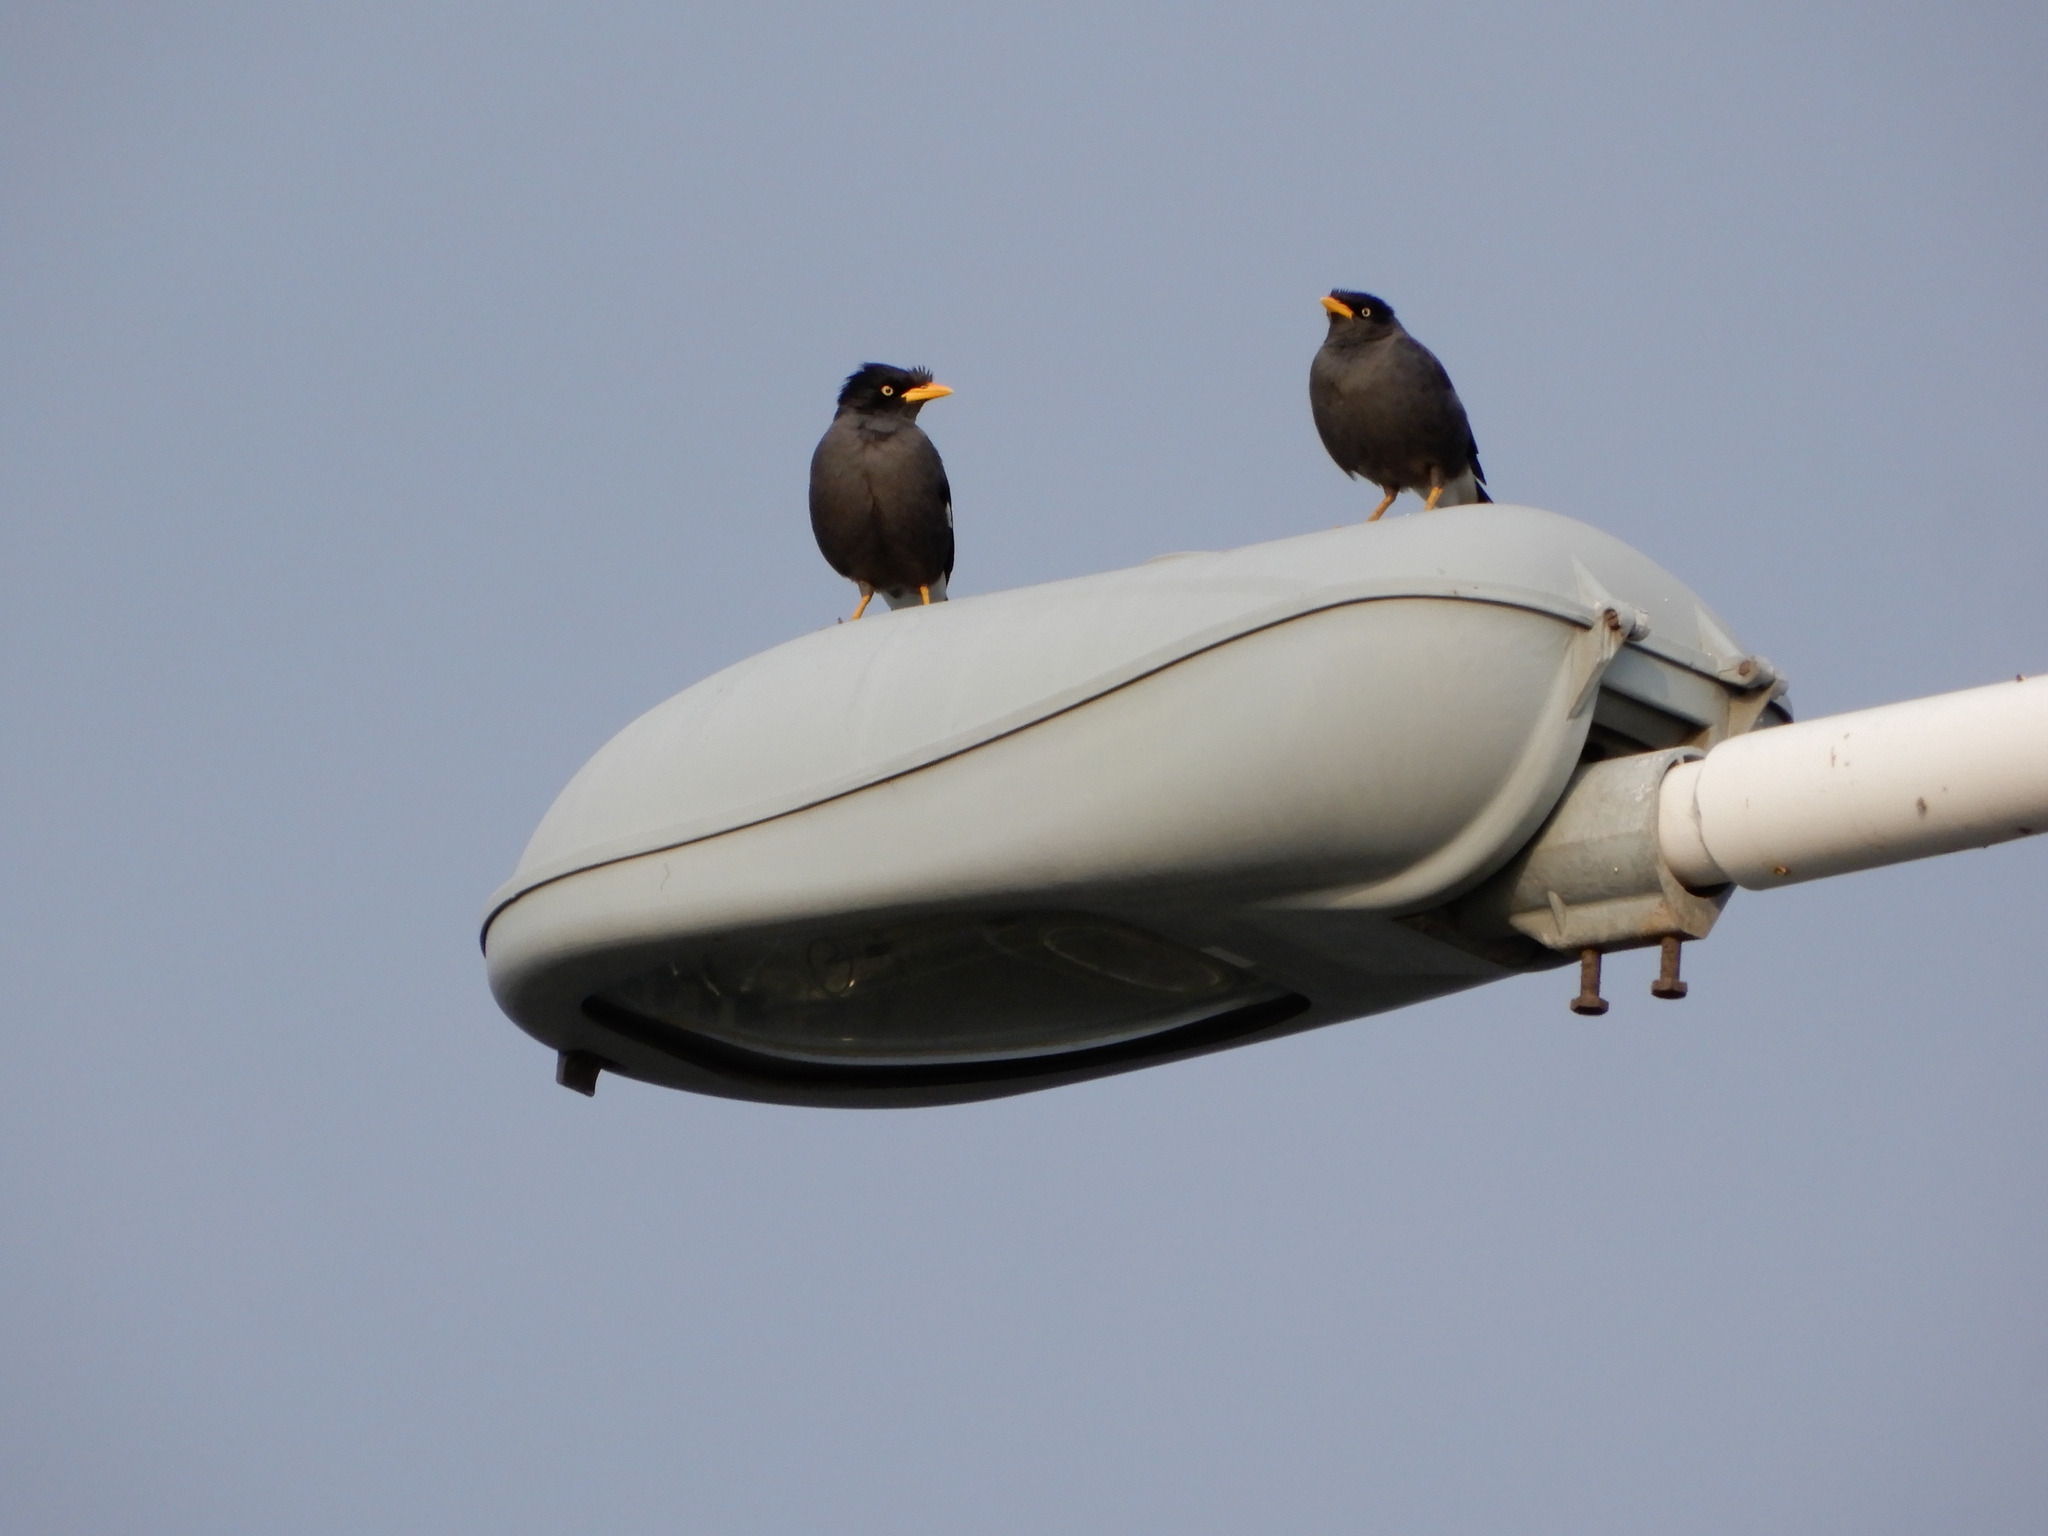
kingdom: Animalia
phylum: Chordata
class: Aves
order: Passeriformes
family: Sturnidae
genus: Acridotheres
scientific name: Acridotheres javanicus
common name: Javan myna
